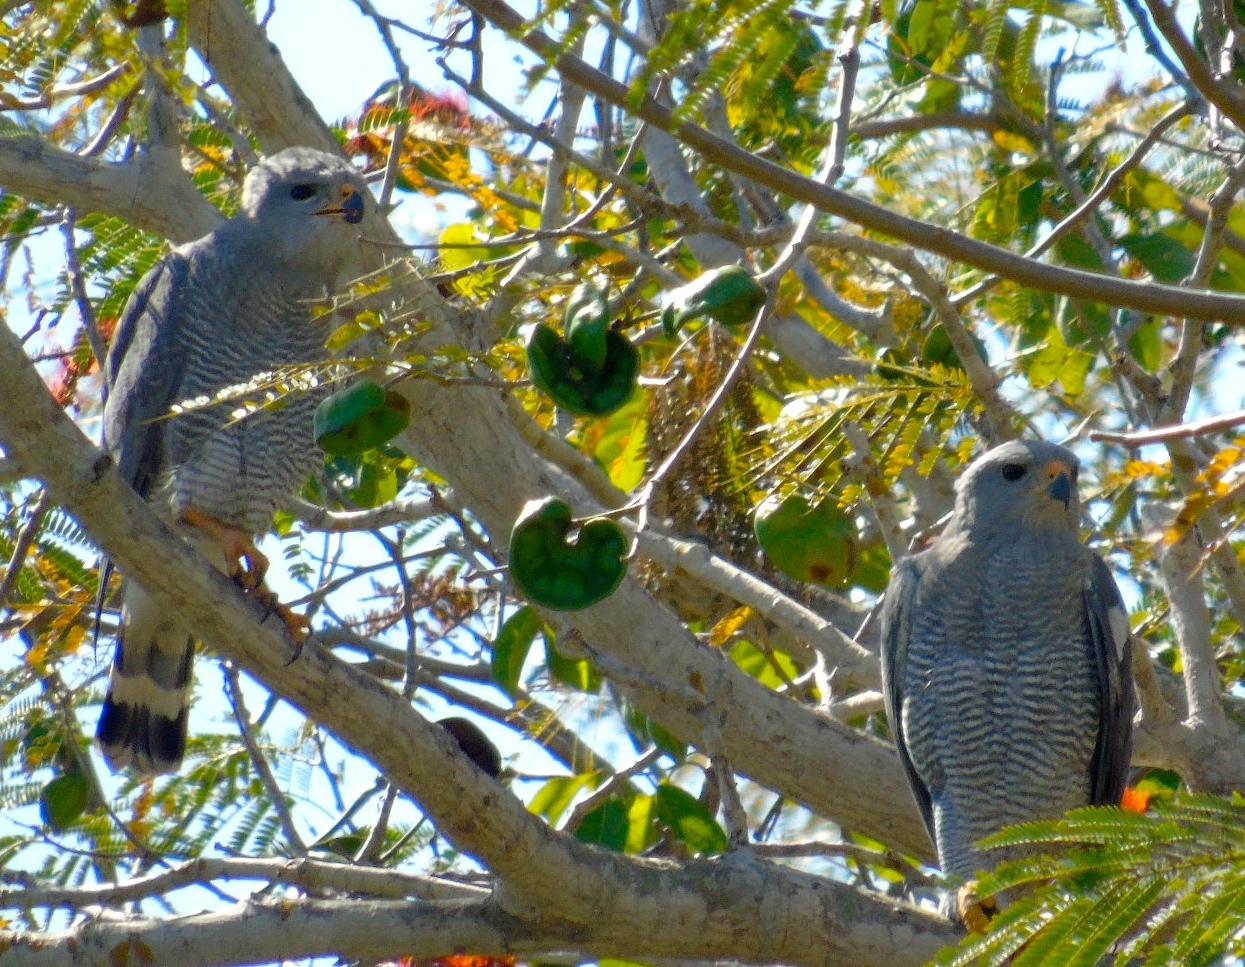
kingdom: Animalia
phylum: Chordata
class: Aves
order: Accipitriformes
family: Accipitridae
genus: Buteo
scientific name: Buteo nitidus
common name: Grey-lined hawk
